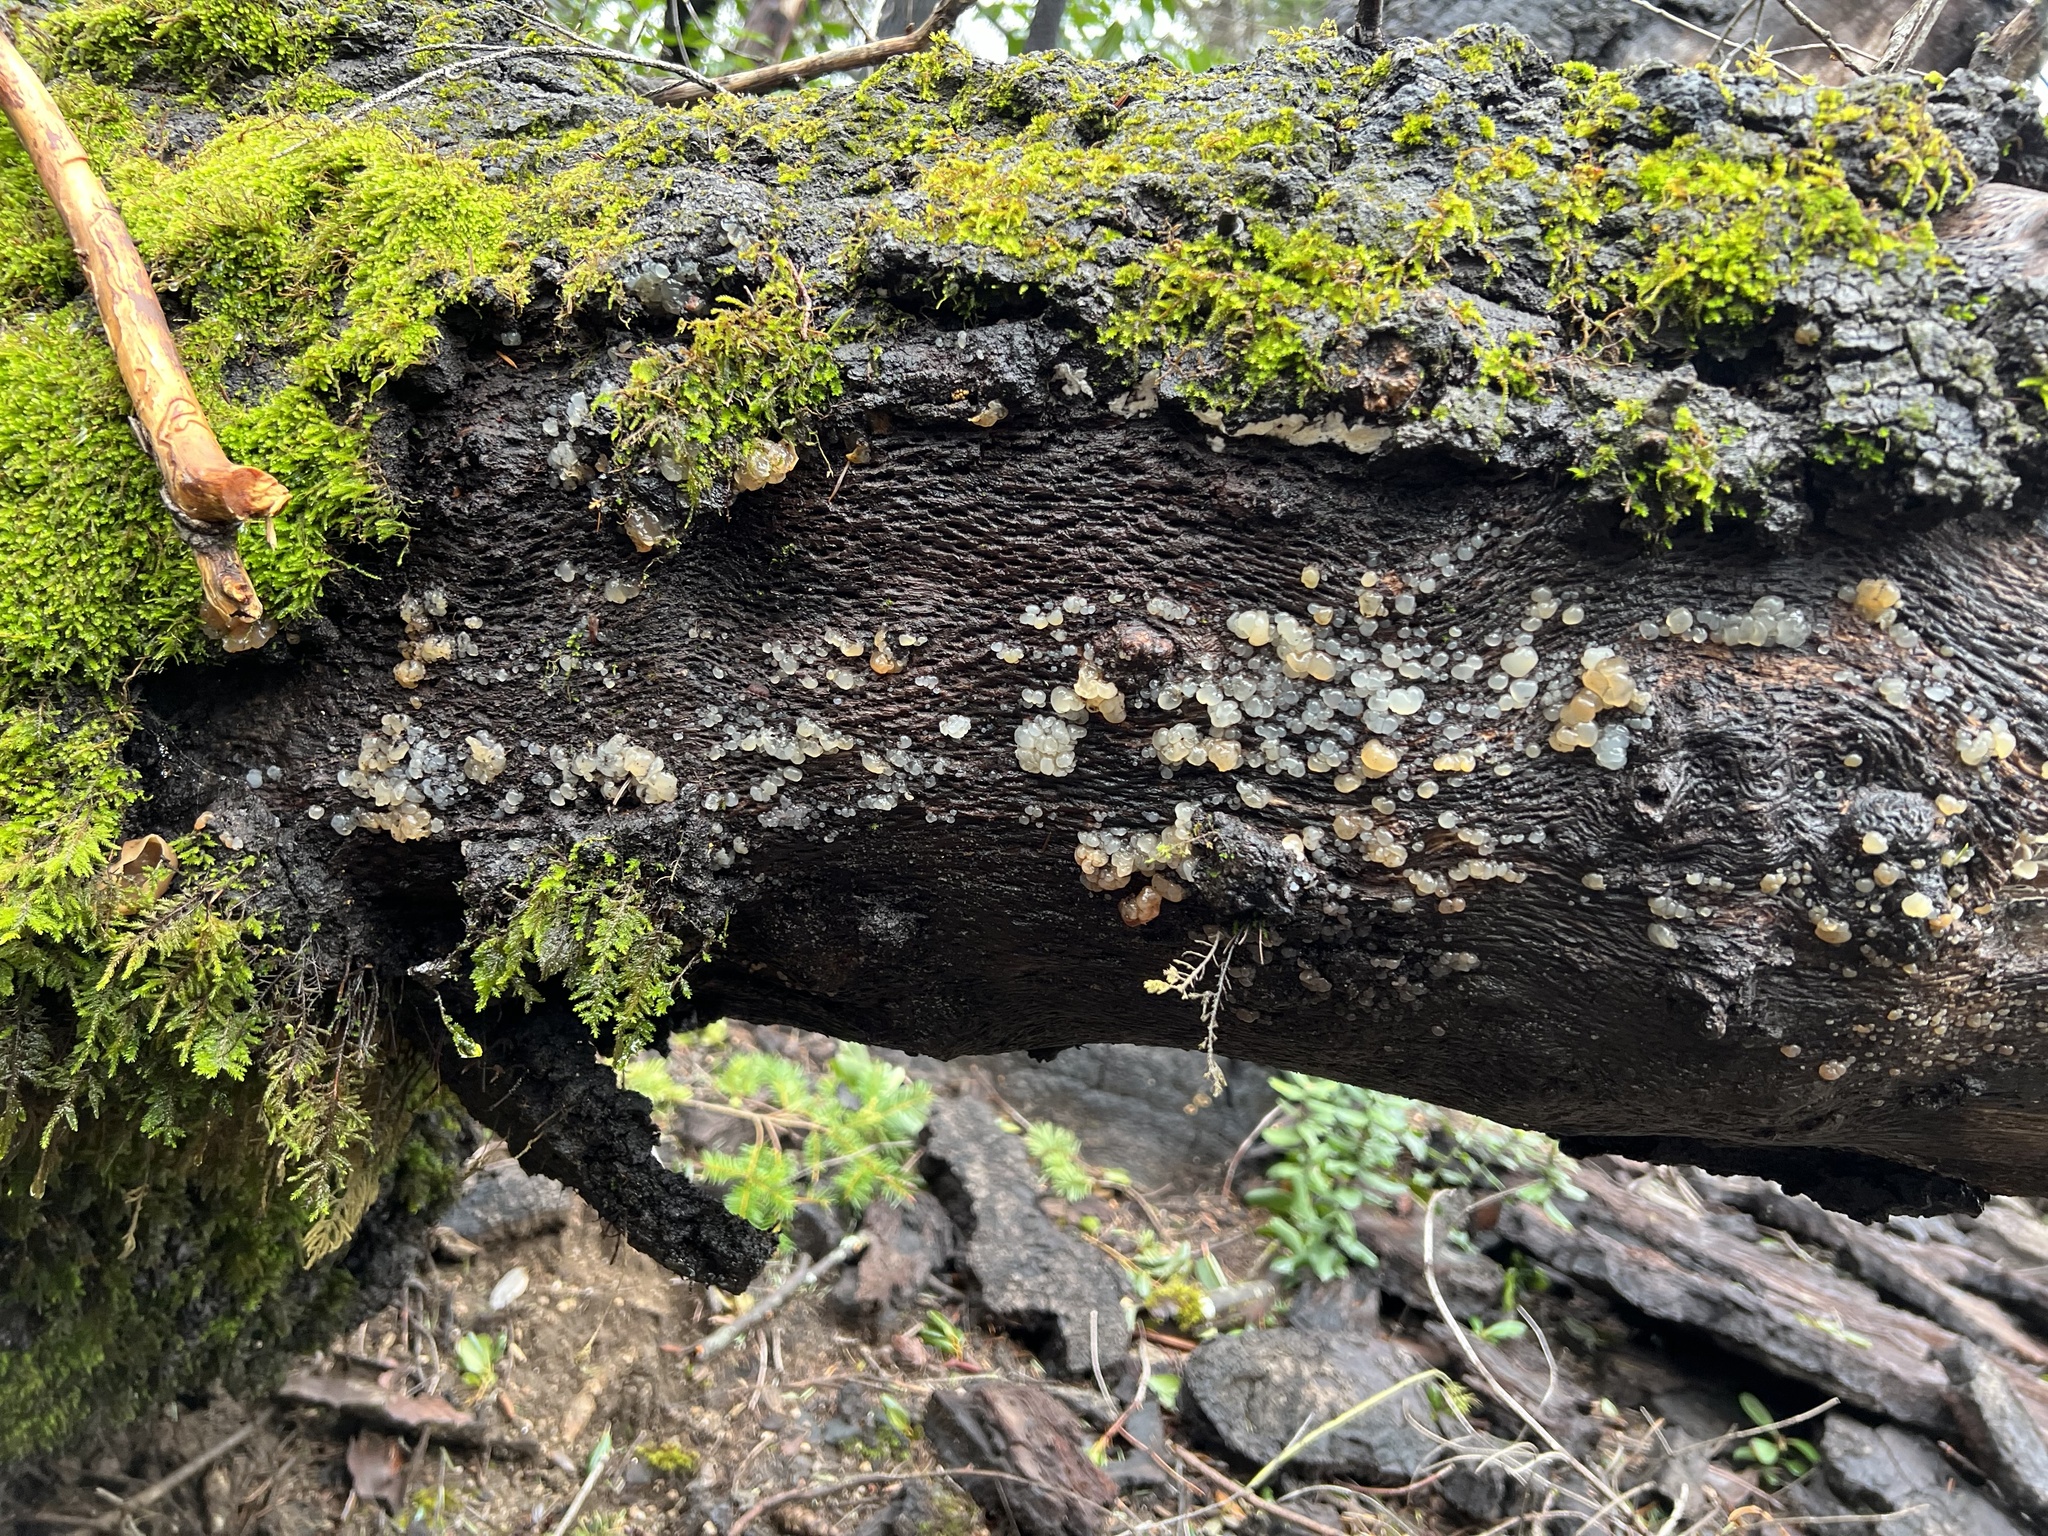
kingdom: Fungi
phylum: Basidiomycota
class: Agaricomycetes
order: Auriculariales
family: Hyaloriaceae
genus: Myxarium
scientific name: Myxarium nucleatum
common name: Crystal brain fungus
